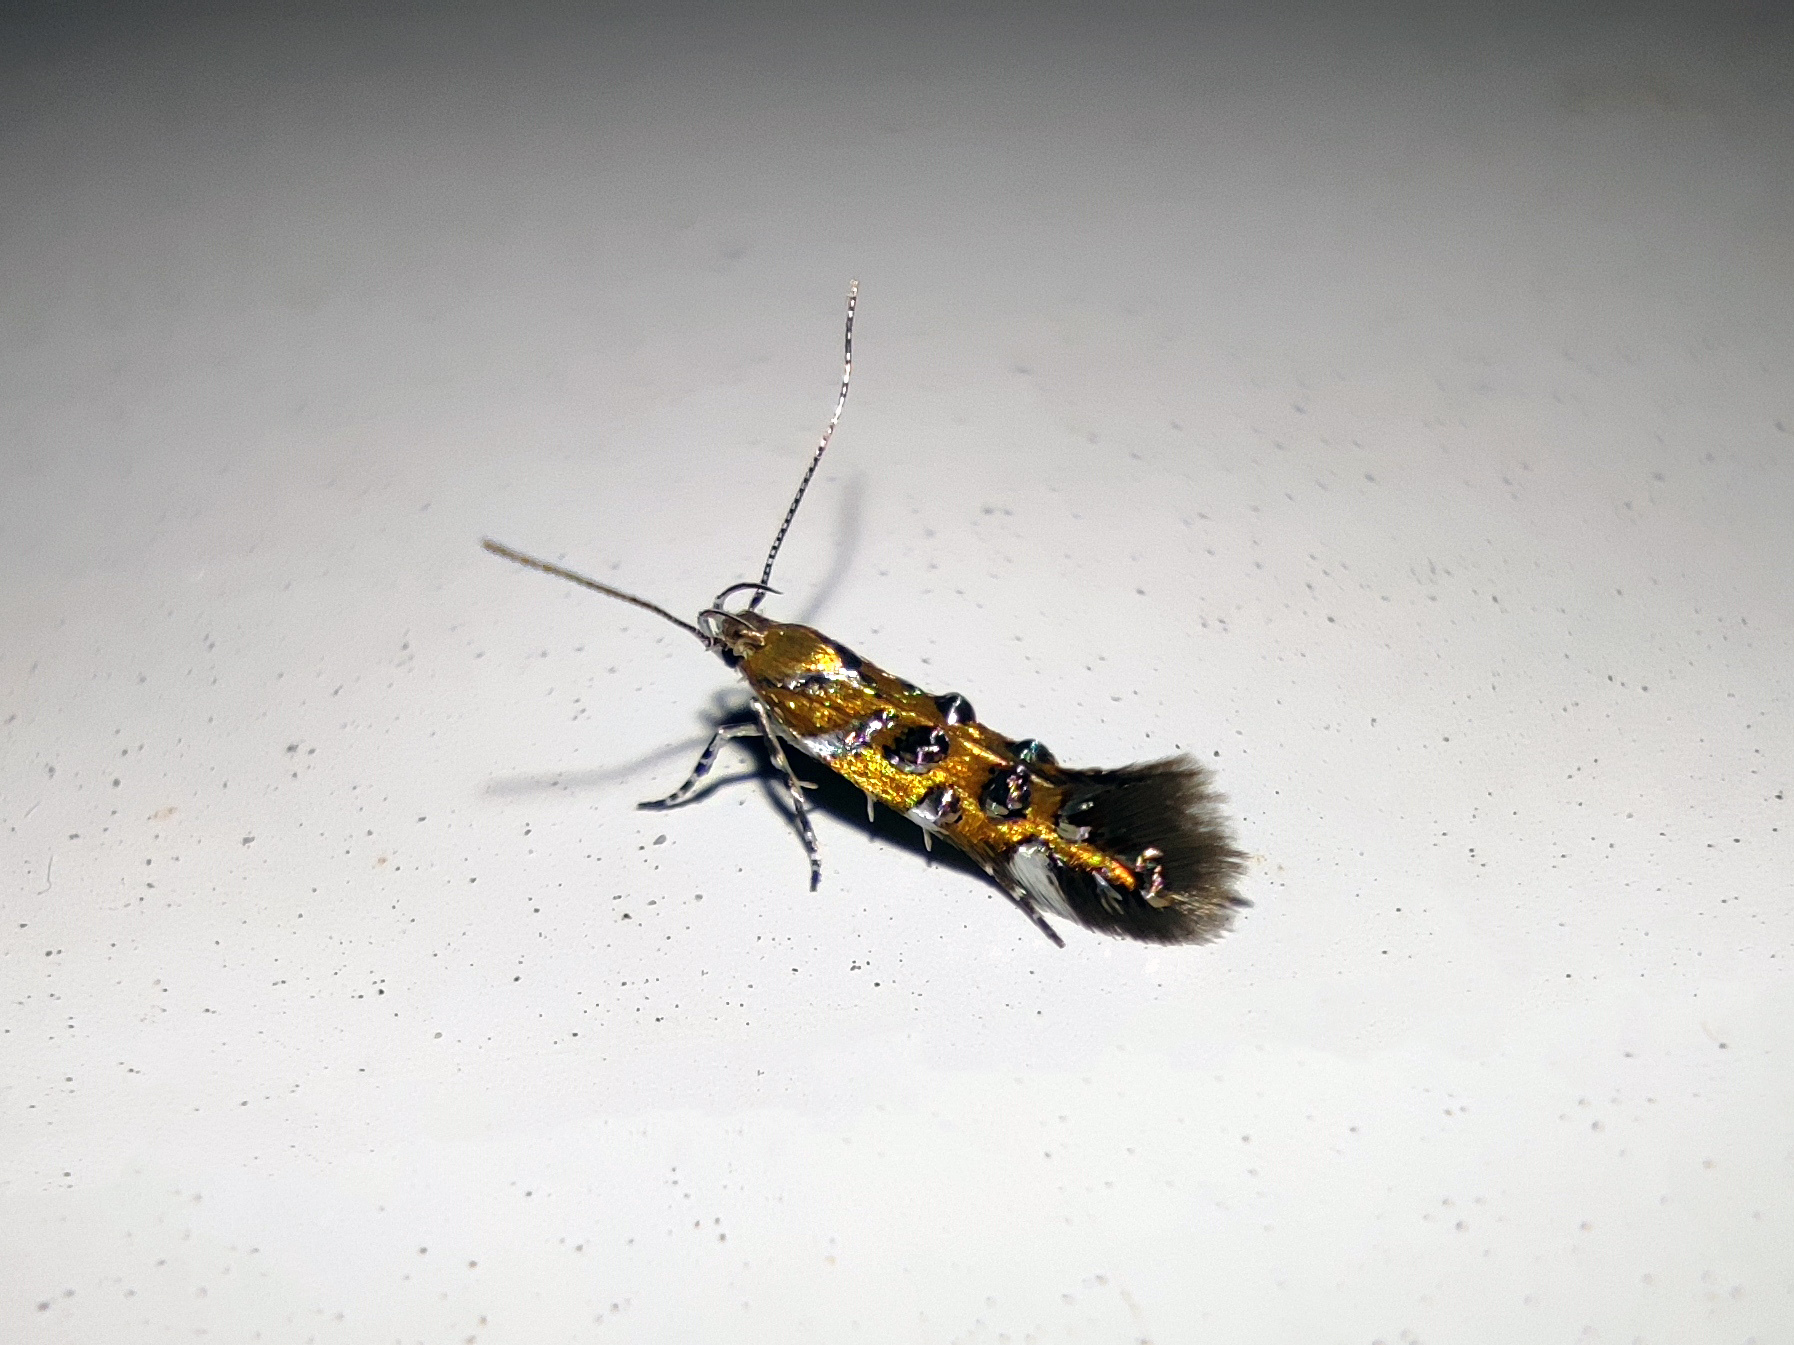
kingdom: Animalia
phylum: Arthropoda
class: Insecta
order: Lepidoptera
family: Cosmopterigidae
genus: Isidiella
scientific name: Isidiella nickerlii
